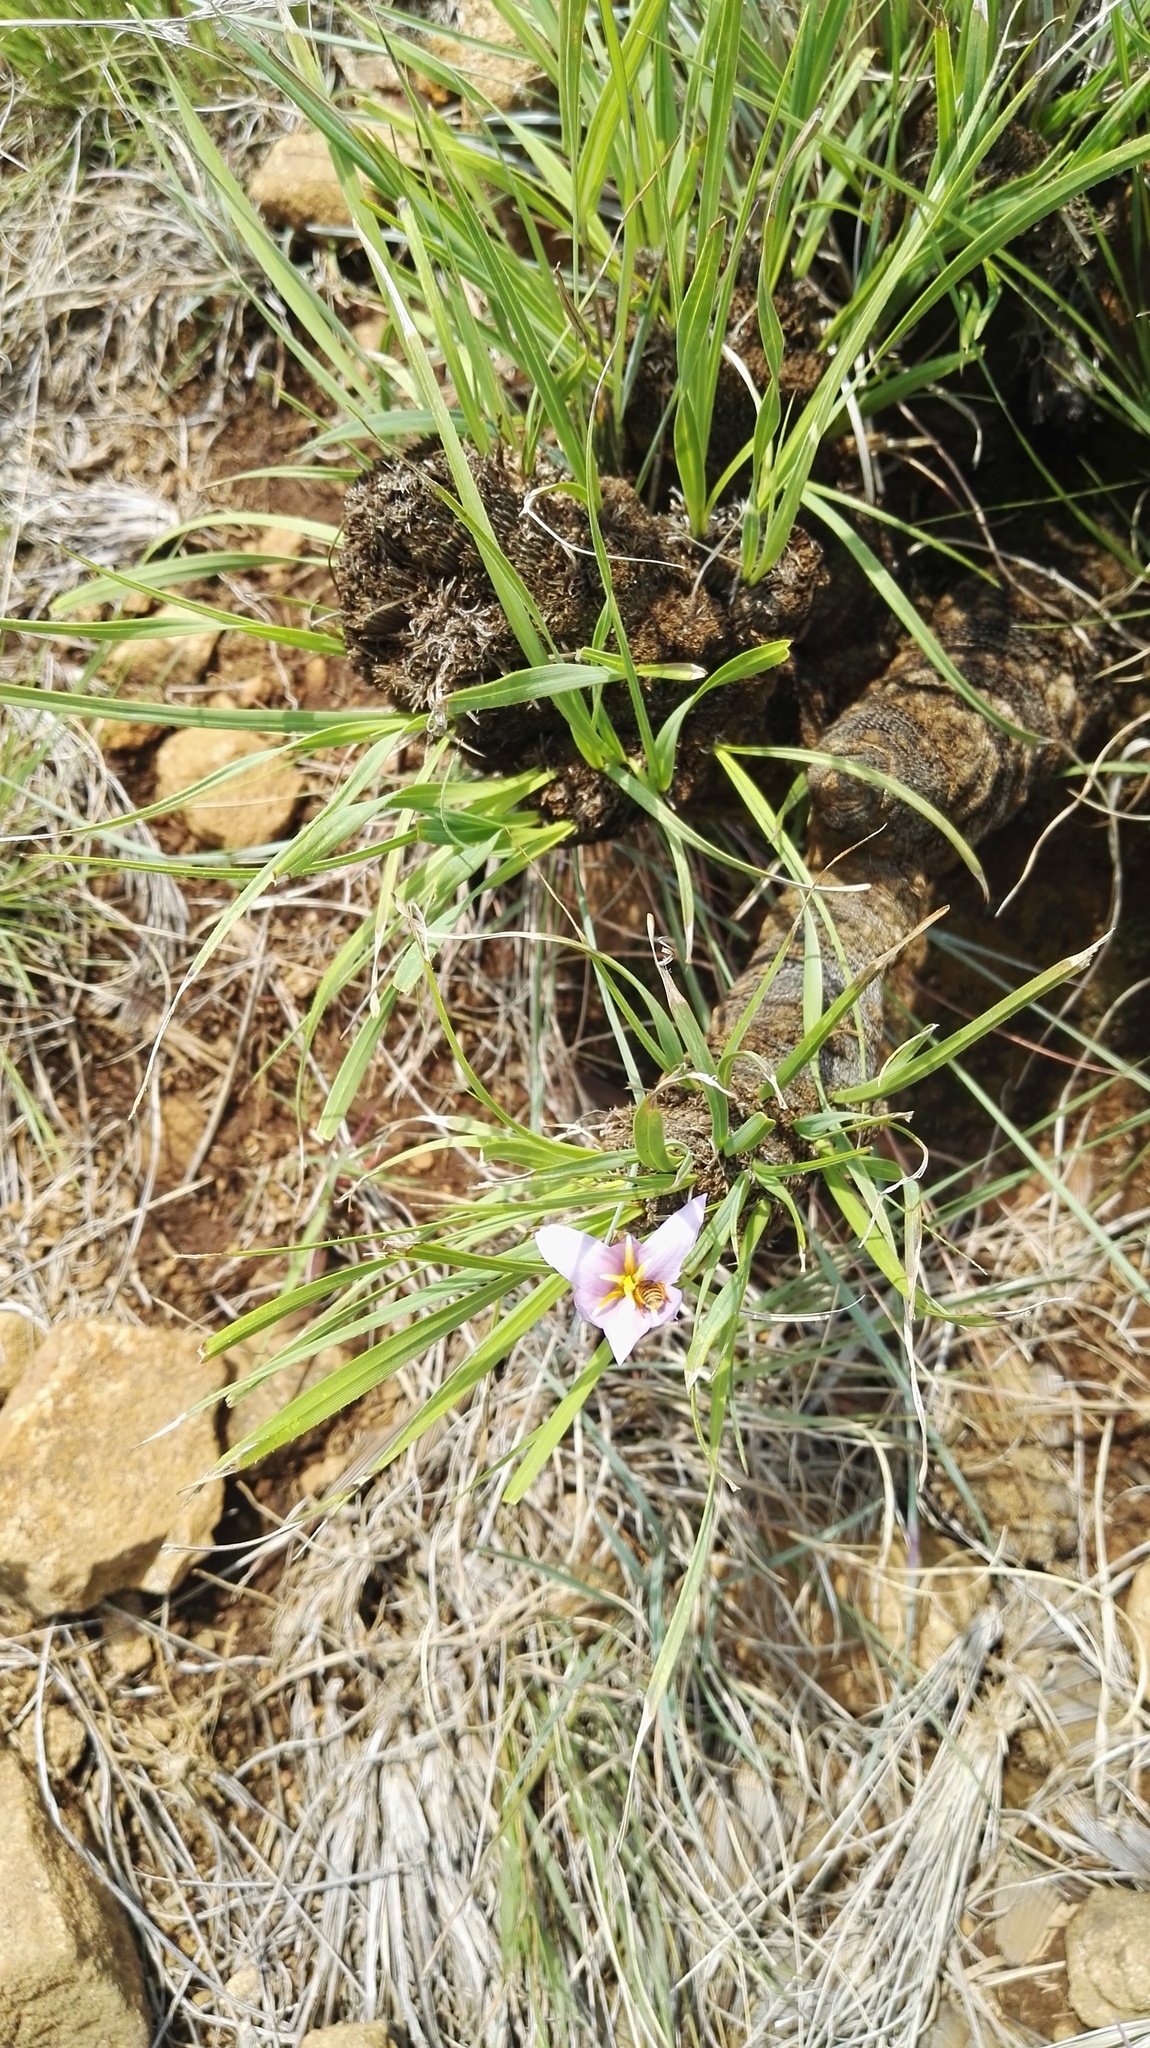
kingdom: Plantae
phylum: Tracheophyta
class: Liliopsida
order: Pandanales
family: Velloziaceae
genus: Xerophyta
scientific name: Xerophyta retinervis
